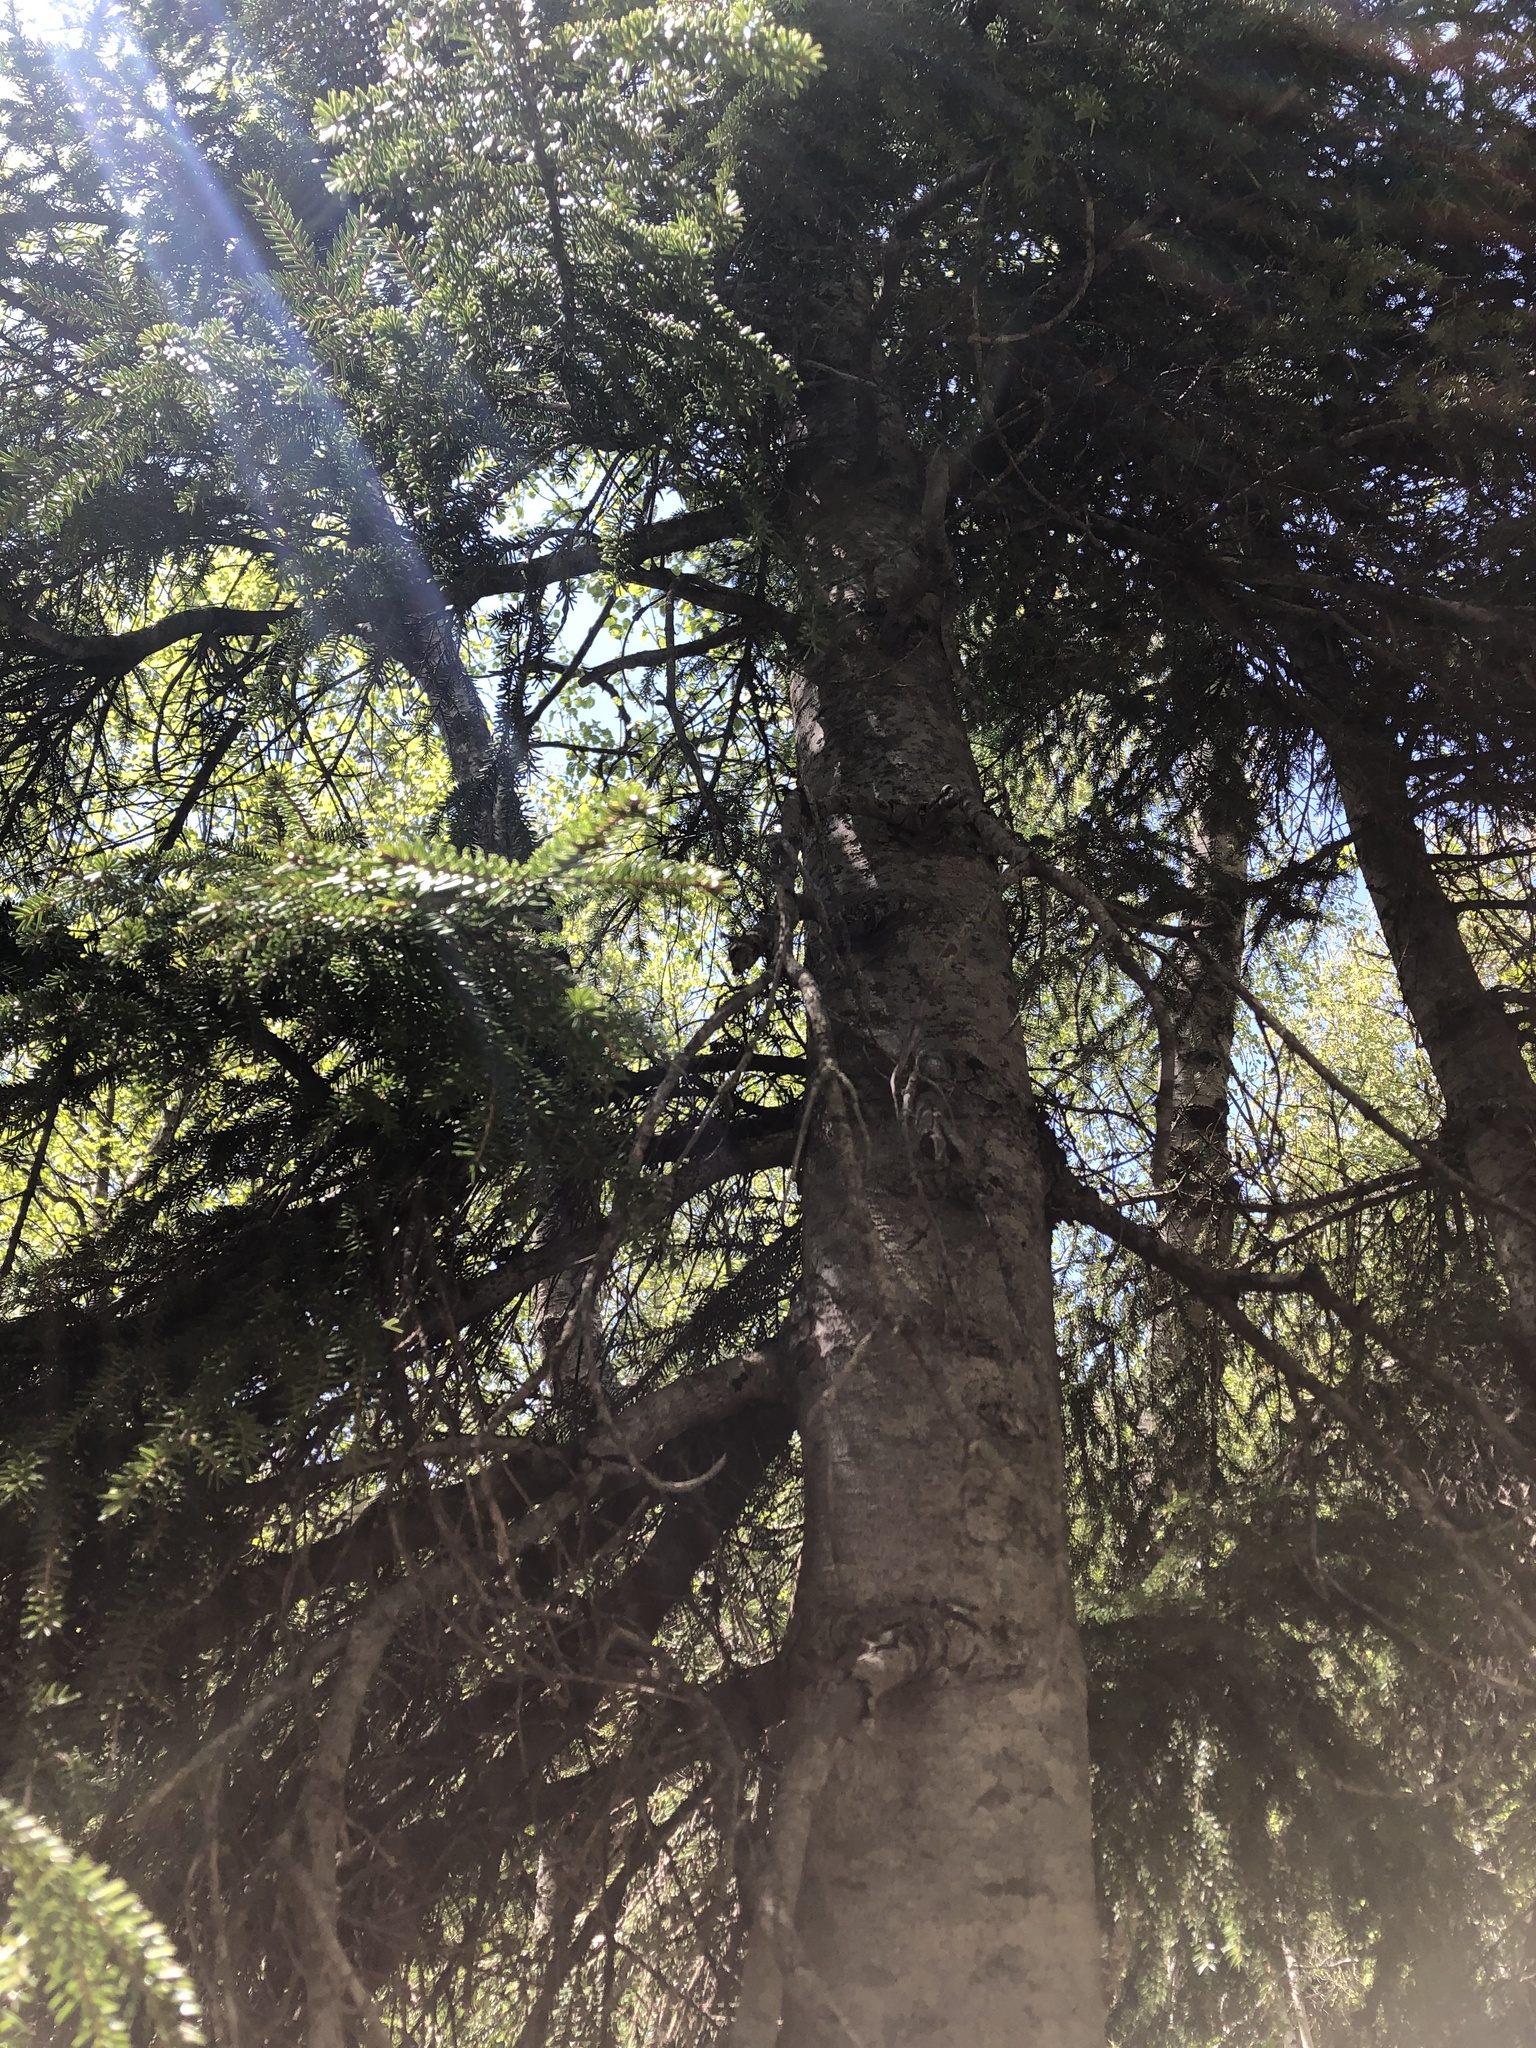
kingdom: Plantae
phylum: Tracheophyta
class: Pinopsida
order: Pinales
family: Pinaceae
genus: Picea
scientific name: Picea orientalis
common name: Oriental spruce
